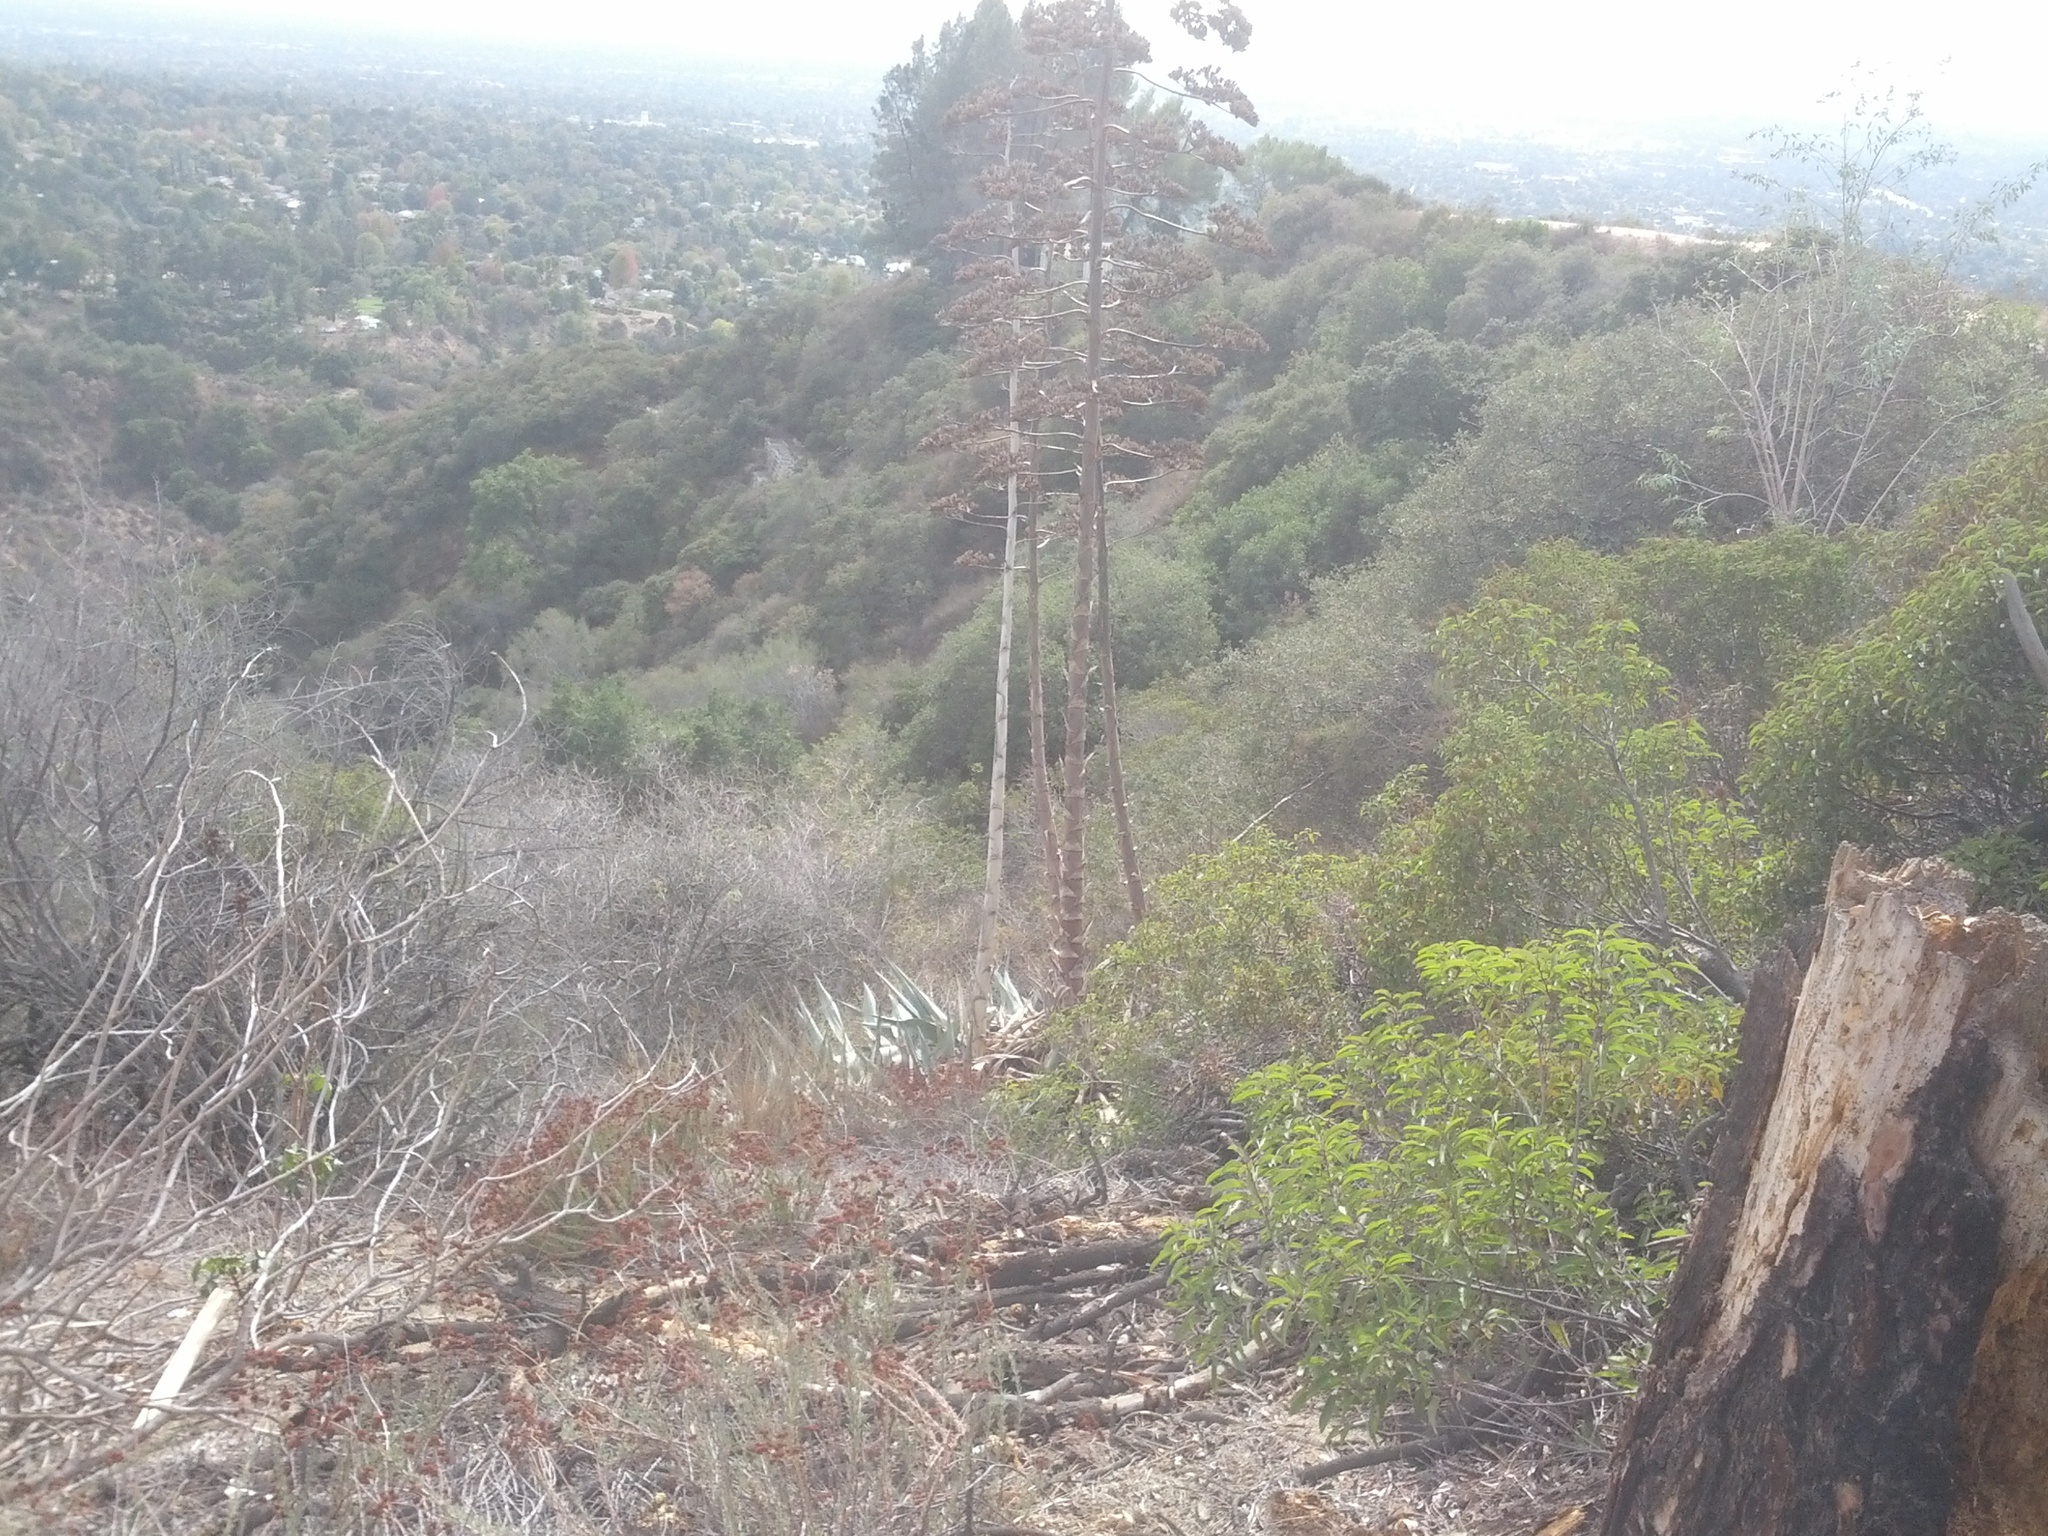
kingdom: Plantae
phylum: Tracheophyta
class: Liliopsida
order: Asparagales
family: Asparagaceae
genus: Agave
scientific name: Agave americana
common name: Centuryplant
